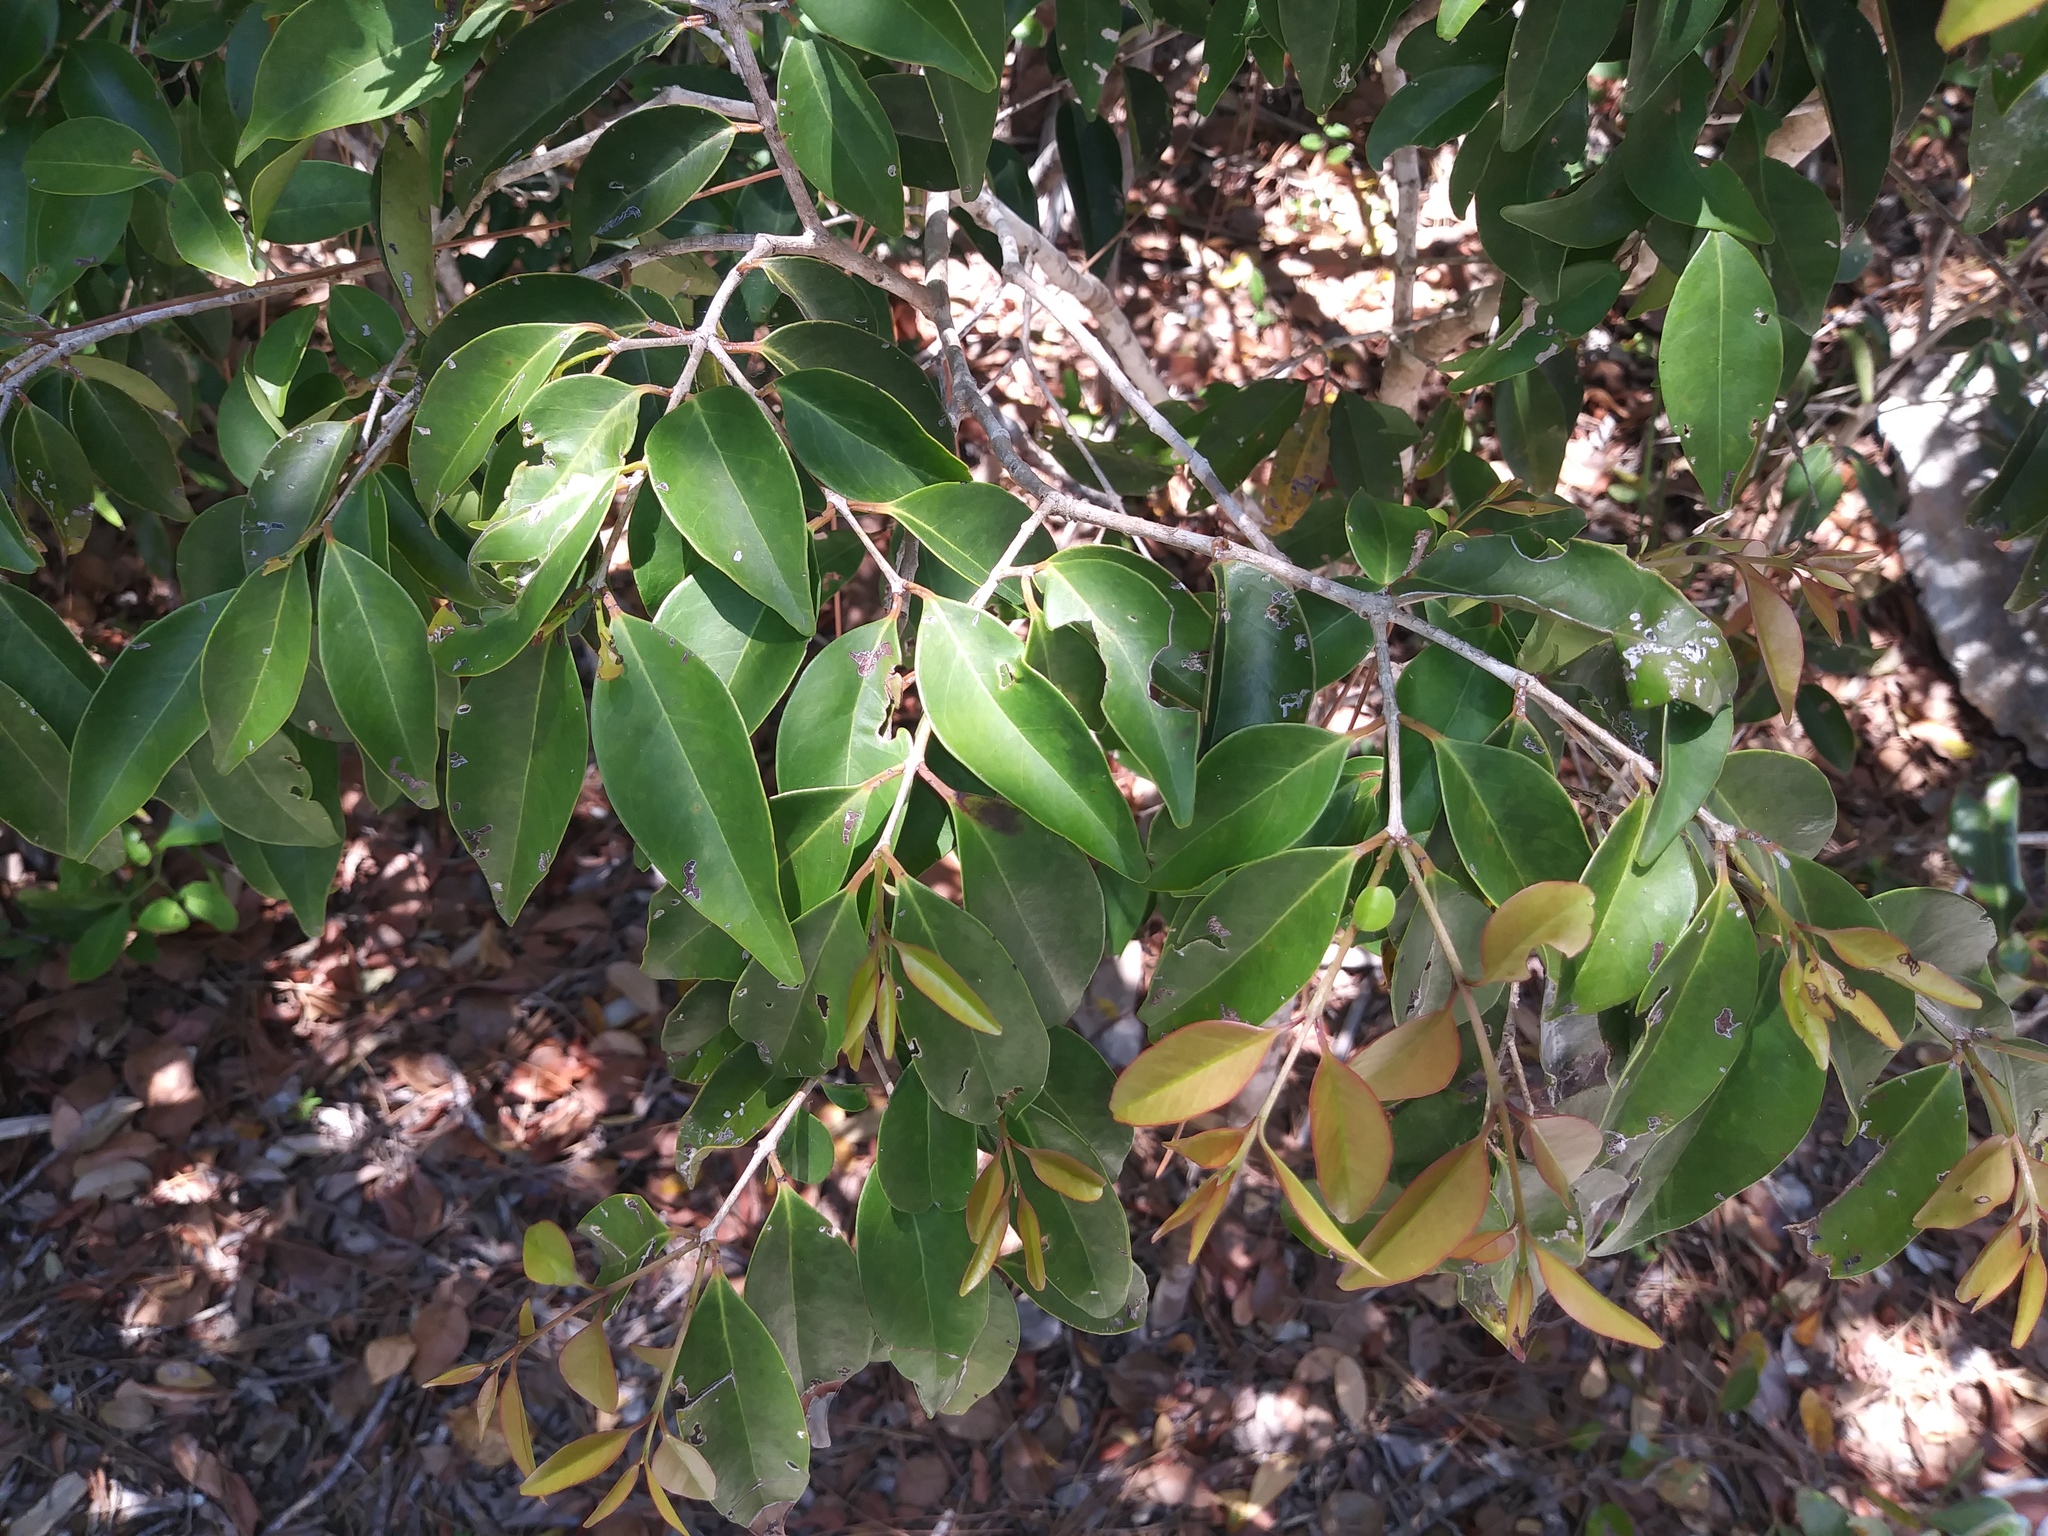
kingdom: Plantae
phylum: Tracheophyta
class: Magnoliopsida
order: Myrtales
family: Myrtaceae
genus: Eugenia
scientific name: Eugenia axillaris
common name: Choaky berry
